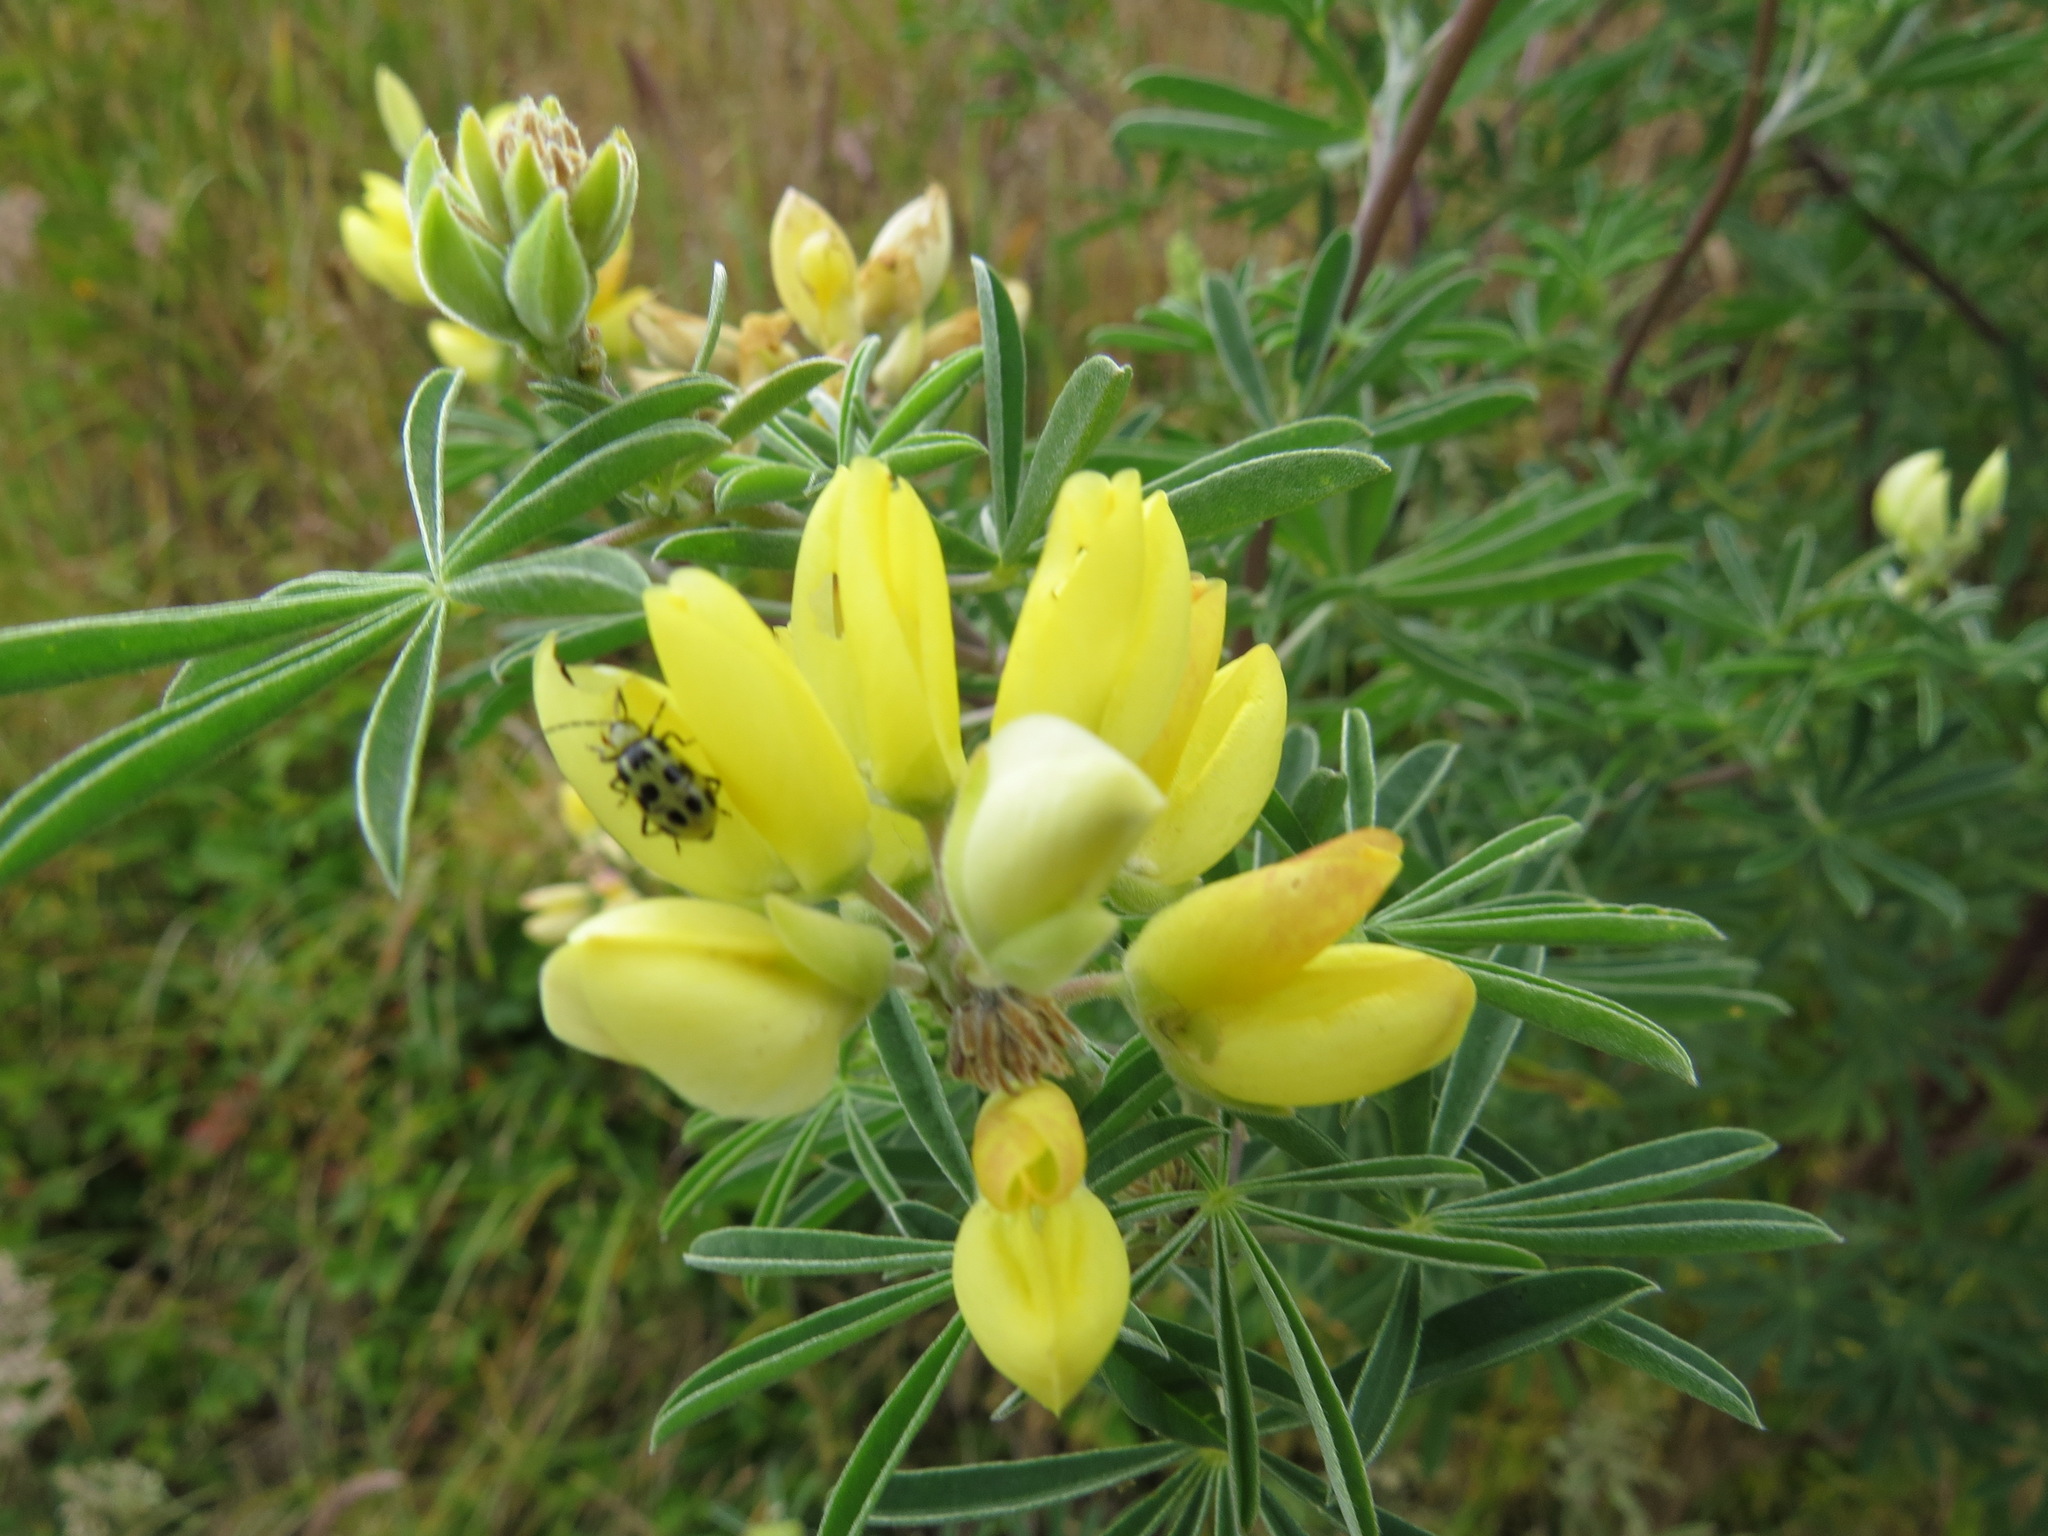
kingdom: Animalia
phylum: Arthropoda
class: Insecta
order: Coleoptera
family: Chrysomelidae
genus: Diabrotica
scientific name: Diabrotica undecimpunctata
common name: Spotted cucumber beetle
